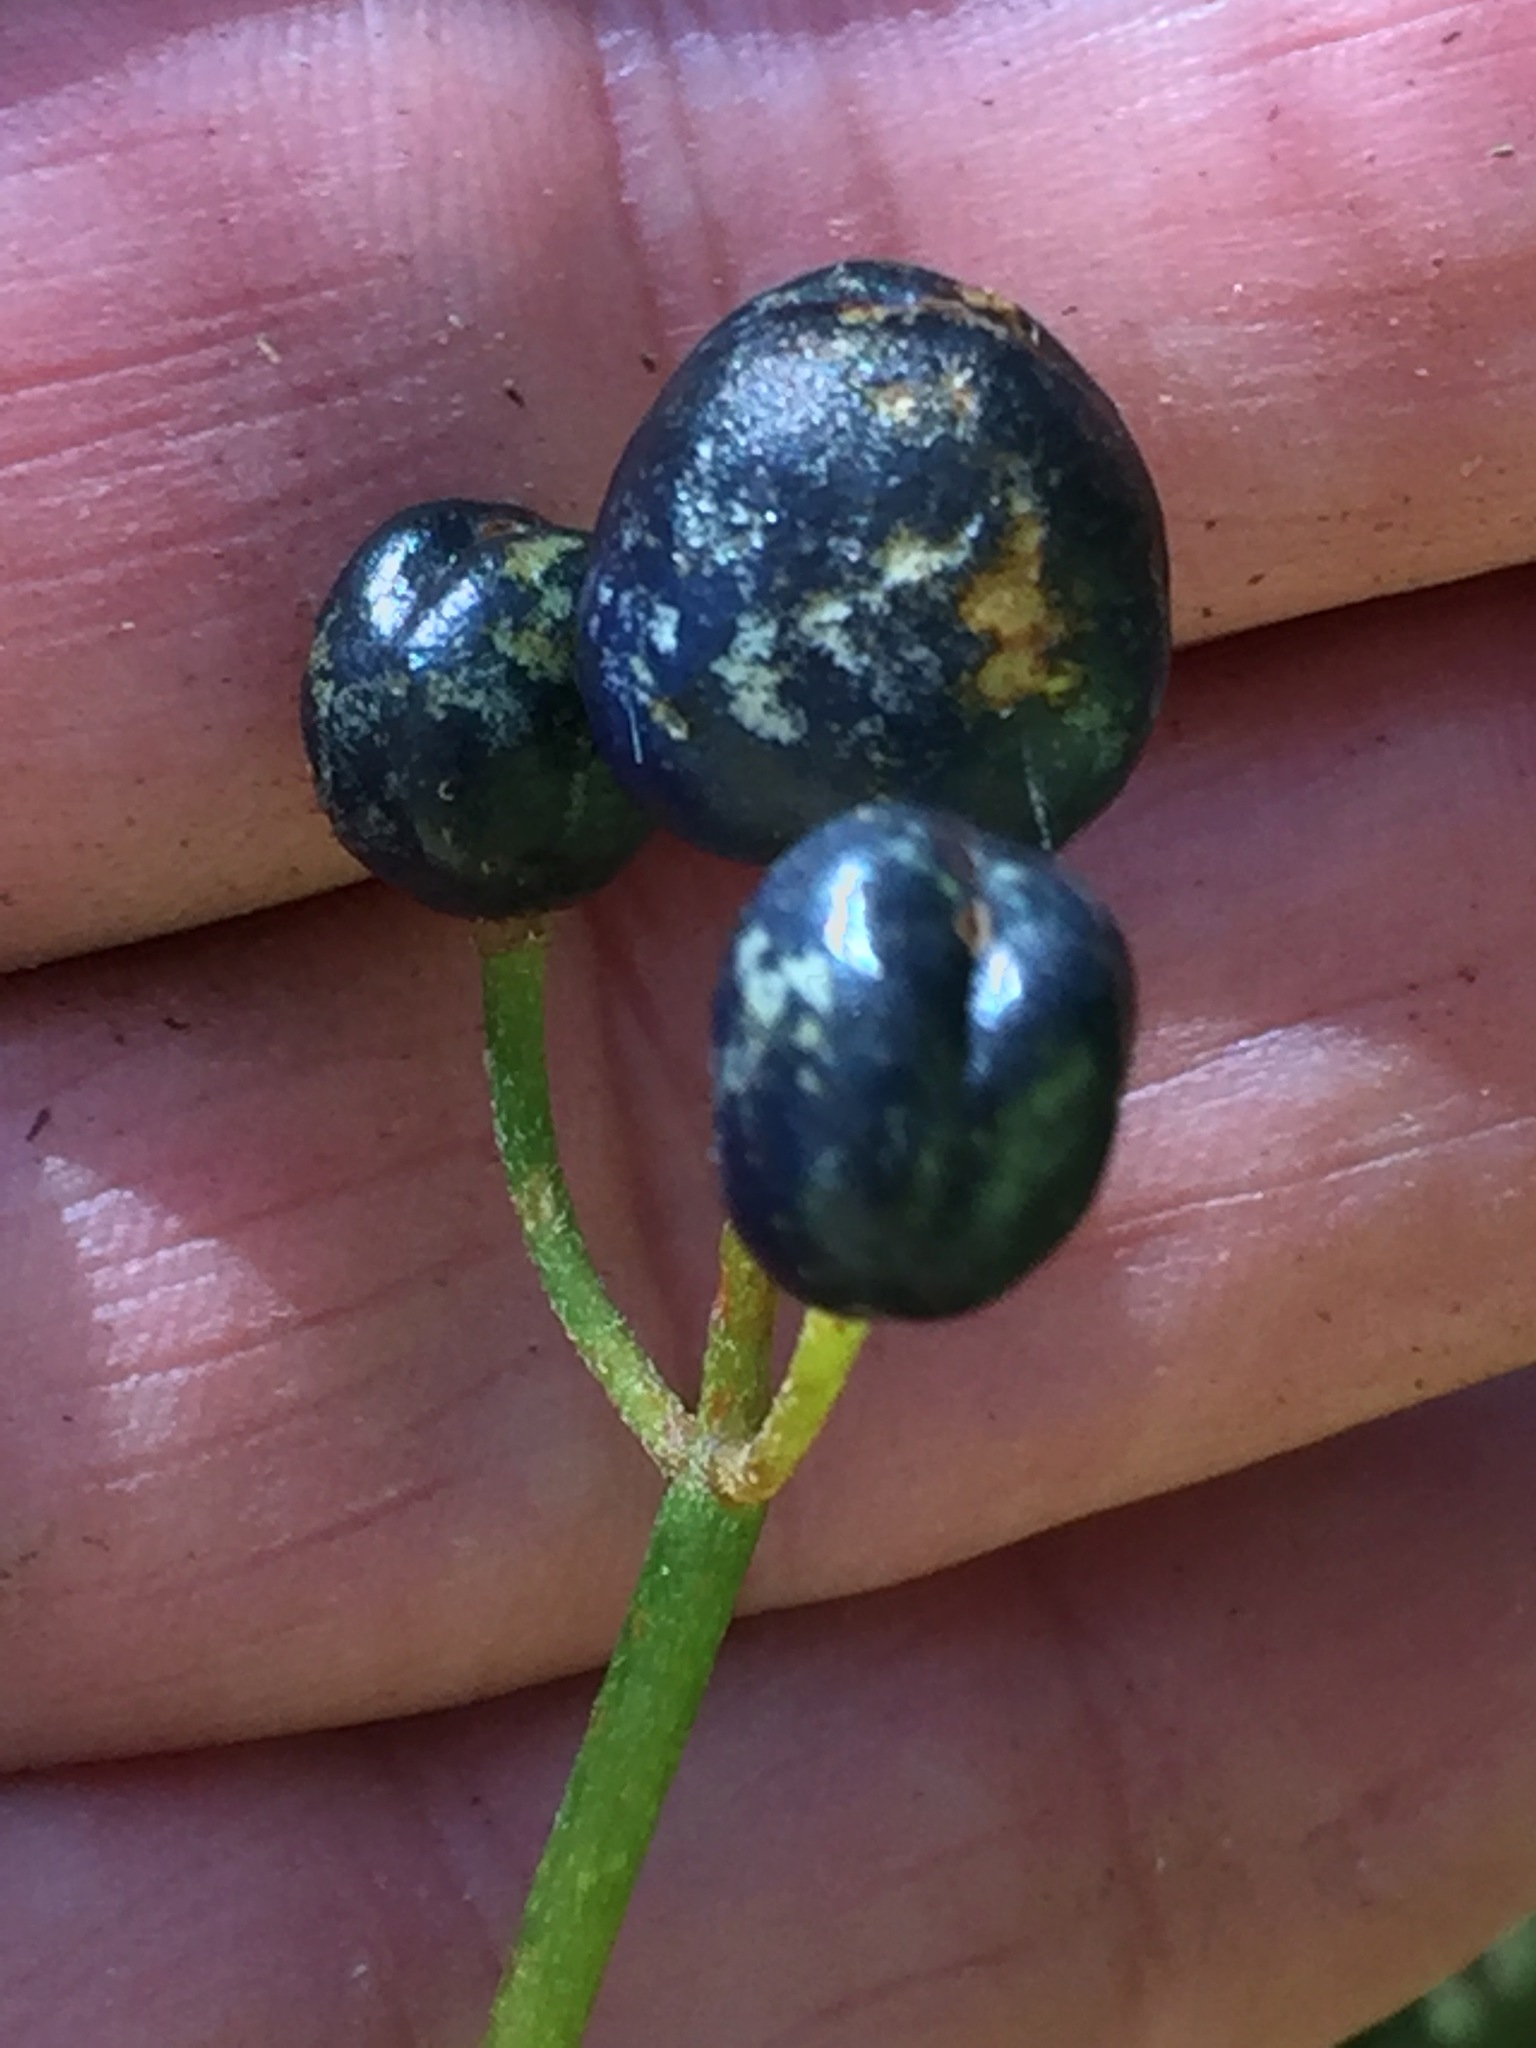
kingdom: Plantae
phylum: Tracheophyta
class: Liliopsida
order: Liliales
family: Liliaceae
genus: Clintonia
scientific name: Clintonia borealis
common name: Yellow clintonia
